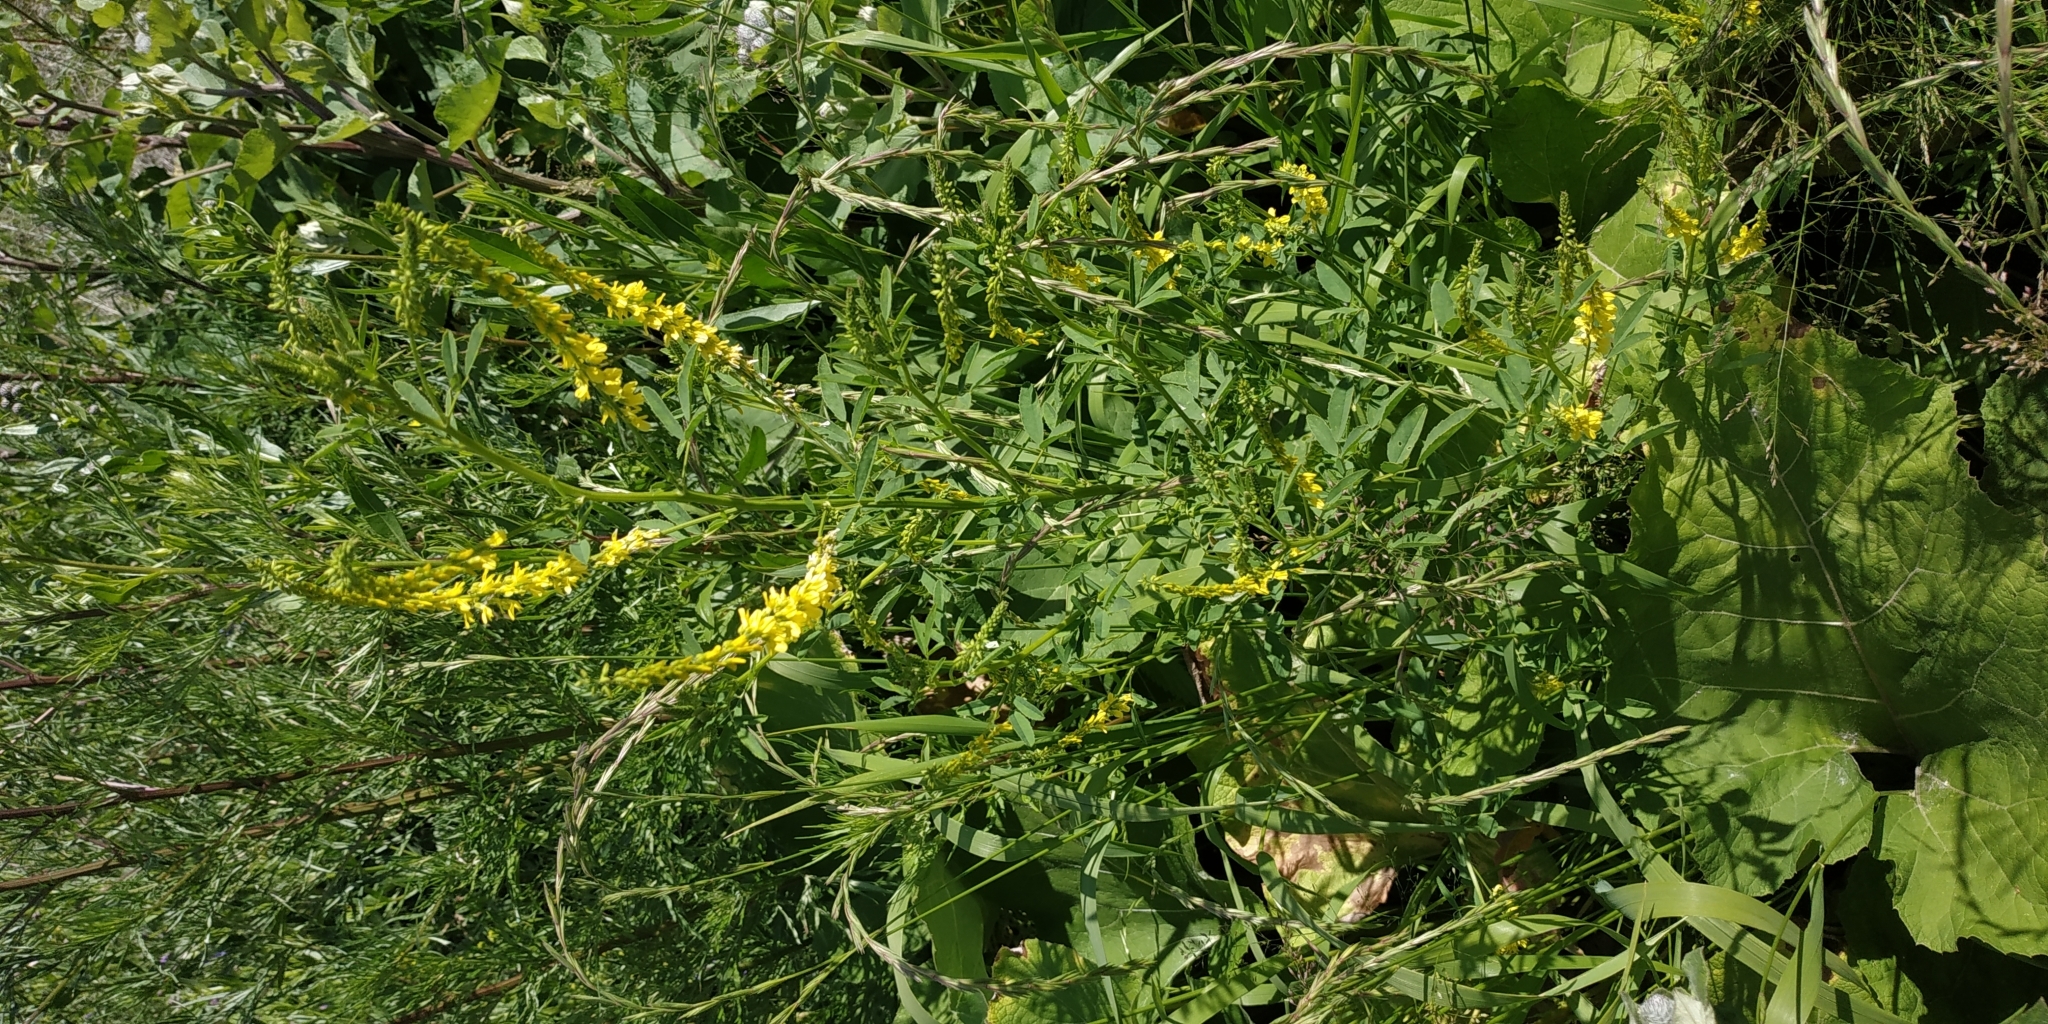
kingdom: Plantae
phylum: Tracheophyta
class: Magnoliopsida
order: Fabales
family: Fabaceae
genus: Melilotus
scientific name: Melilotus officinalis
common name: Sweetclover
